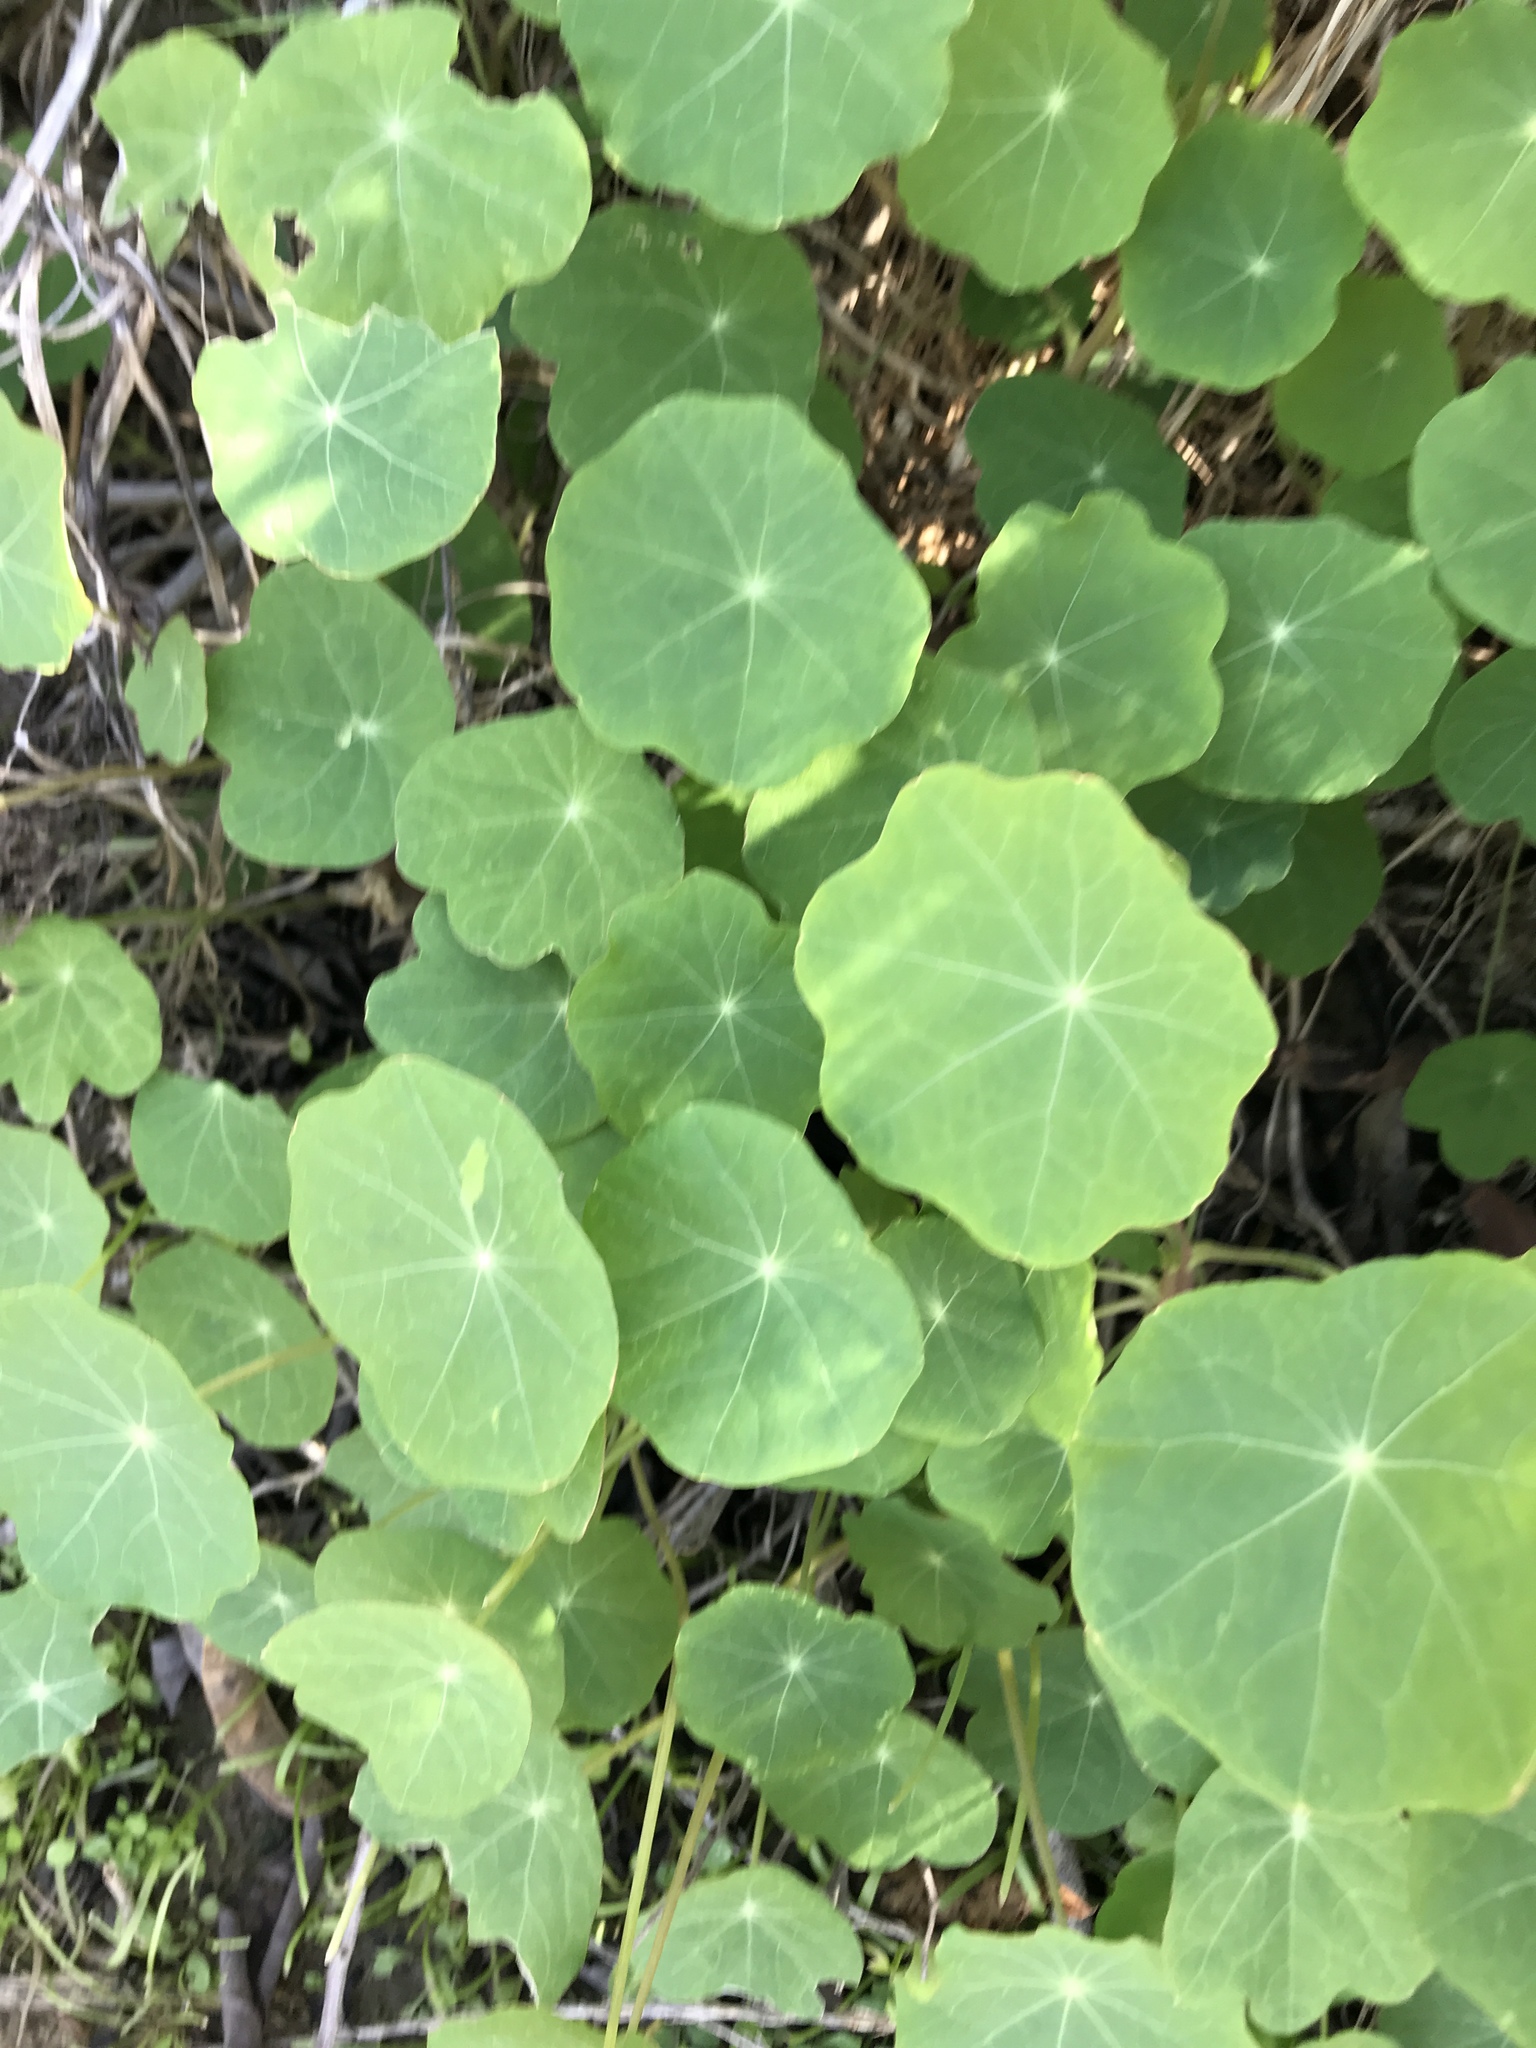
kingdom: Plantae
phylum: Tracheophyta
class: Magnoliopsida
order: Brassicales
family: Tropaeolaceae
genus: Tropaeolum
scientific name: Tropaeolum majus
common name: Nasturtium
